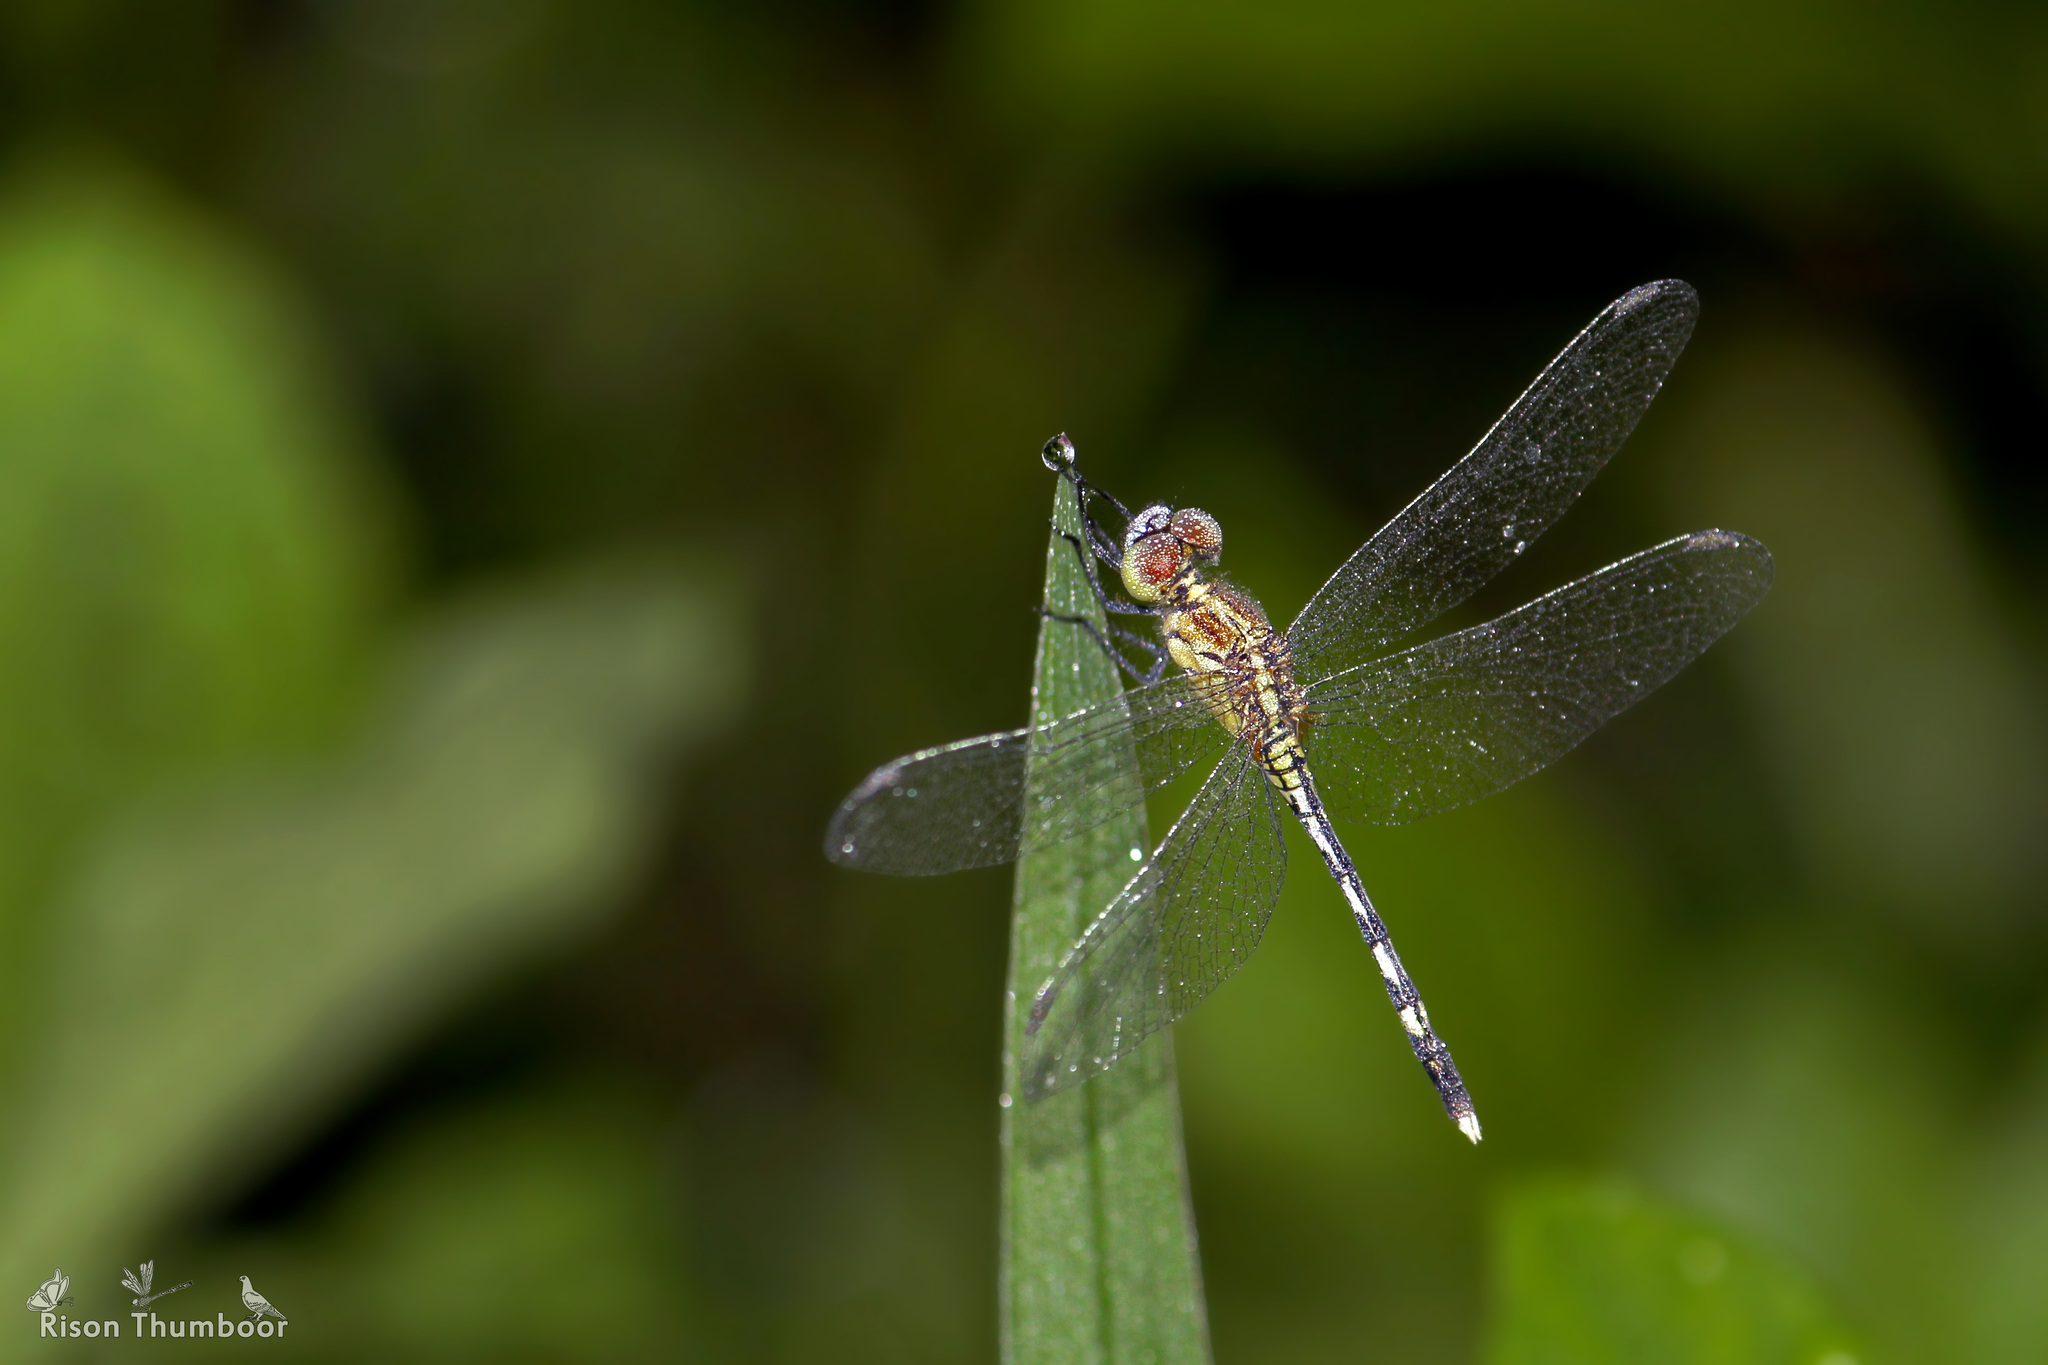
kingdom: Animalia
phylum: Arthropoda
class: Insecta
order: Odonata
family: Libellulidae
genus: Diplacodes
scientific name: Diplacodes trivialis
